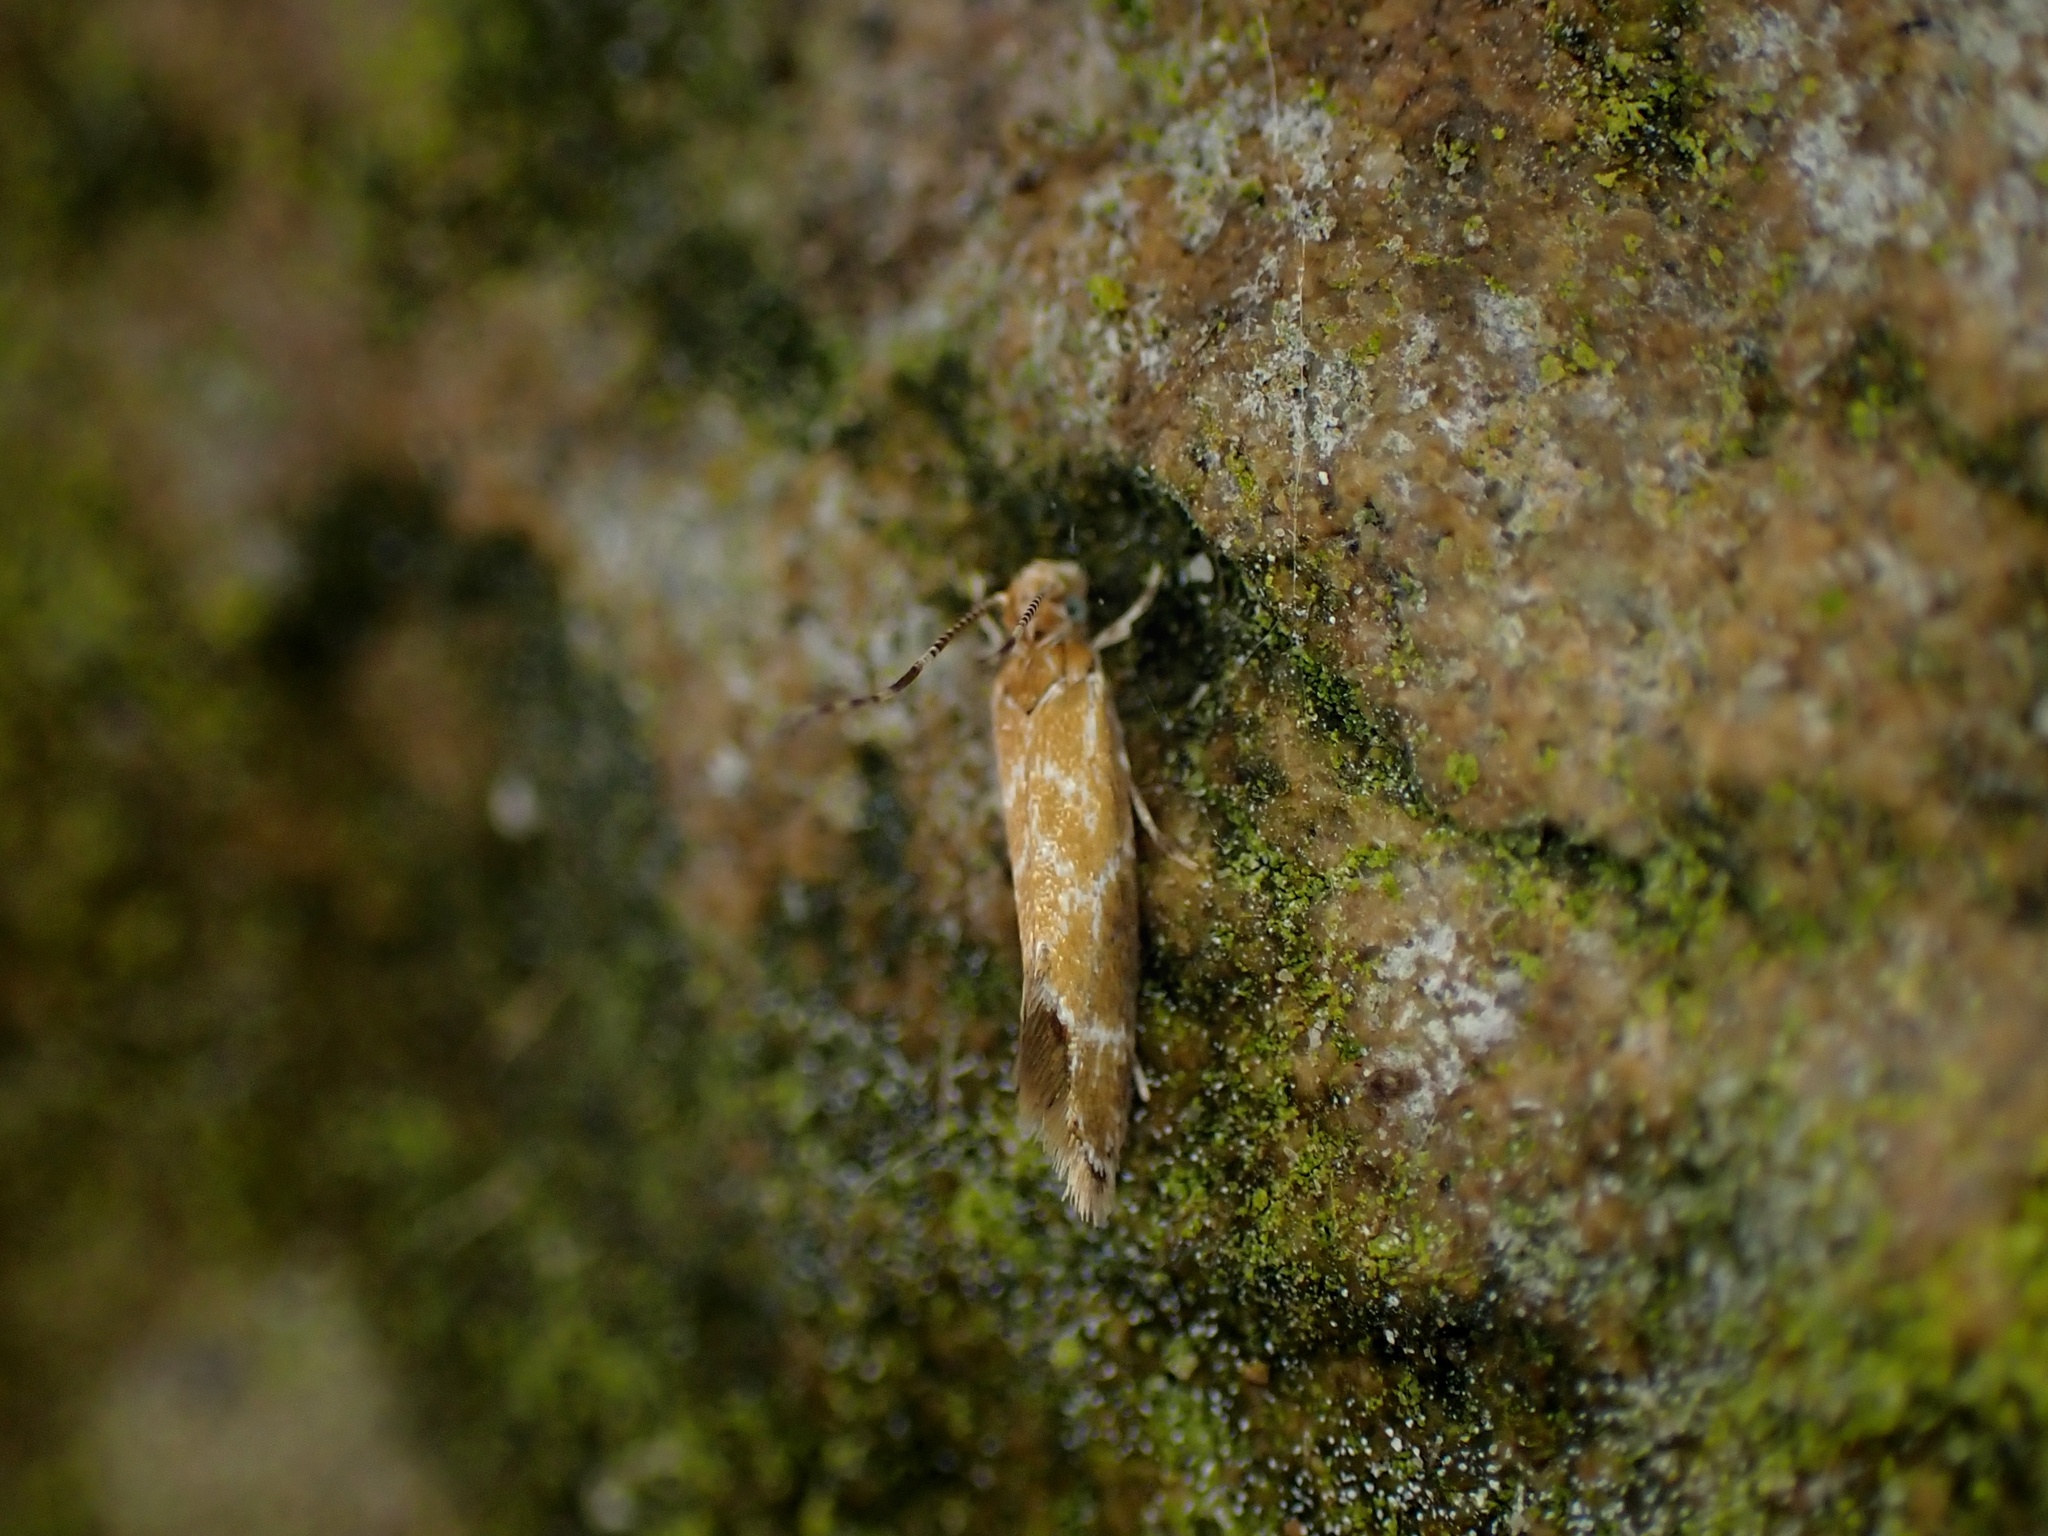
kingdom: Animalia
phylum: Arthropoda
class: Insecta
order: Lepidoptera
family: Dryadaulidae
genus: Dryadaula
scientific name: Dryadaula castanea
